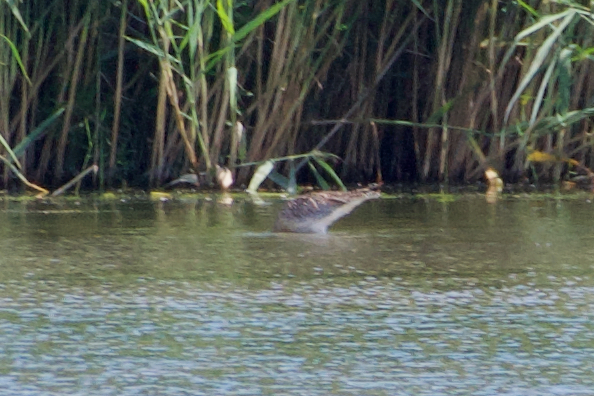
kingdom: Animalia
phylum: Chordata
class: Aves
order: Charadriiformes
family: Scolopacidae
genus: Numenius
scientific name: Numenius arquata
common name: Eurasian curlew
